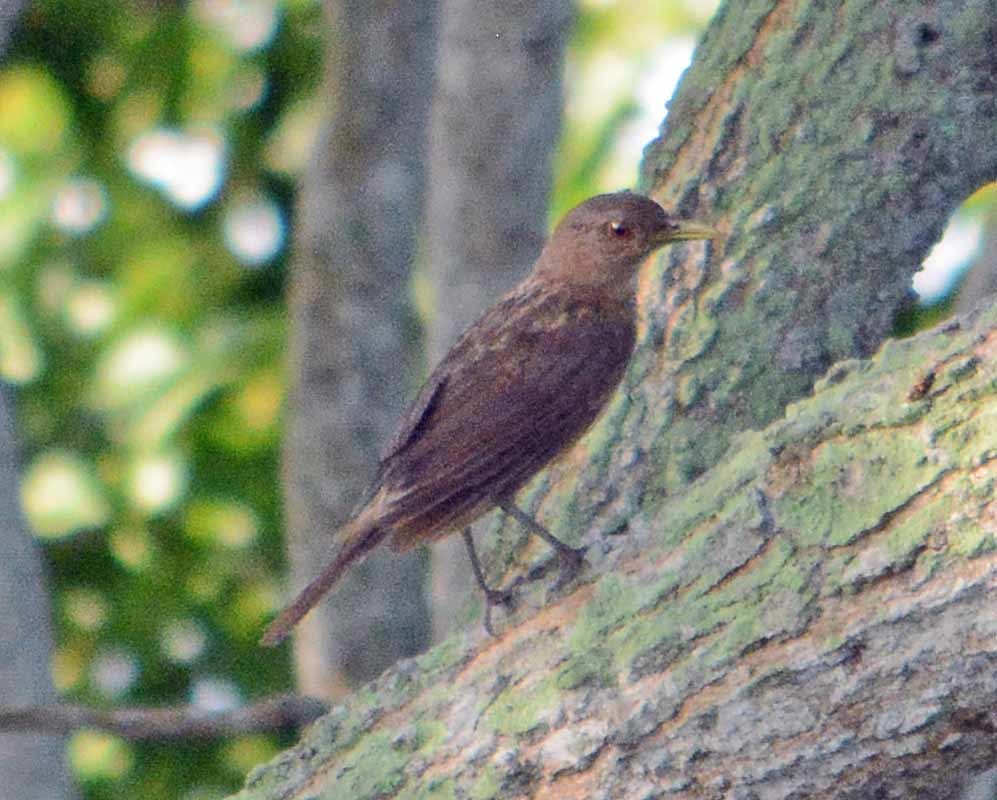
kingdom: Animalia
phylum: Chordata
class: Aves
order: Passeriformes
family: Turdidae
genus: Turdus
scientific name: Turdus grayi
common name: Clay-colored thrush
